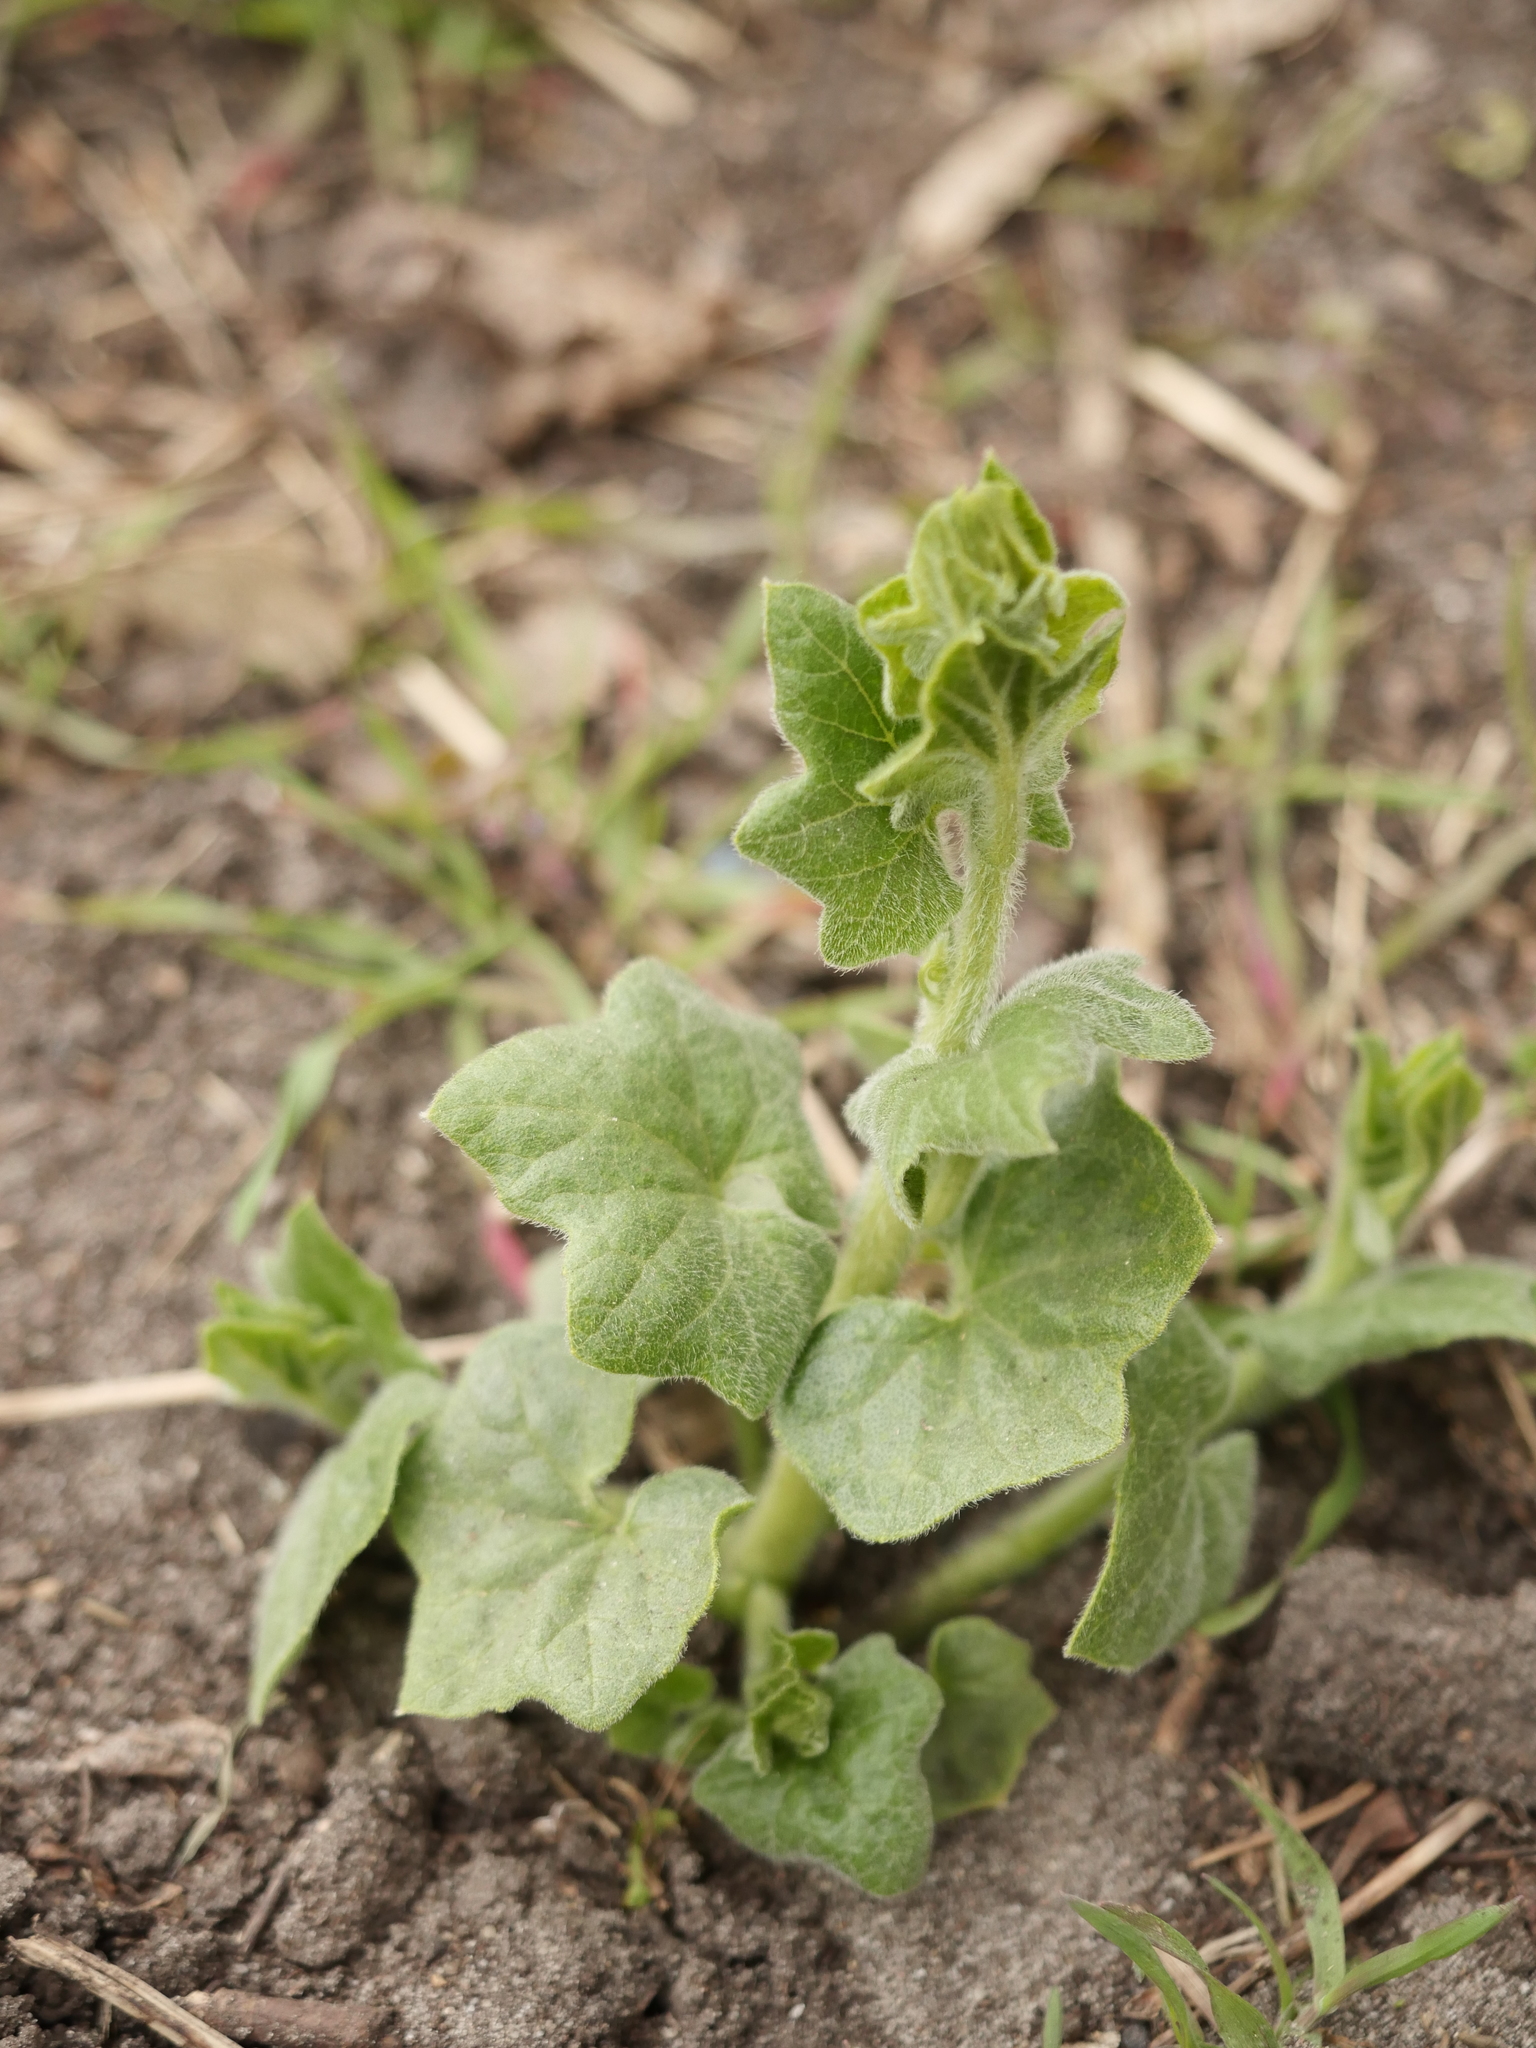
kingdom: Plantae
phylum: Tracheophyta
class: Magnoliopsida
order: Cucurbitales
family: Cucurbitaceae
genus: Bryonia
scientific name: Bryonia cretica
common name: Cretan bryony
